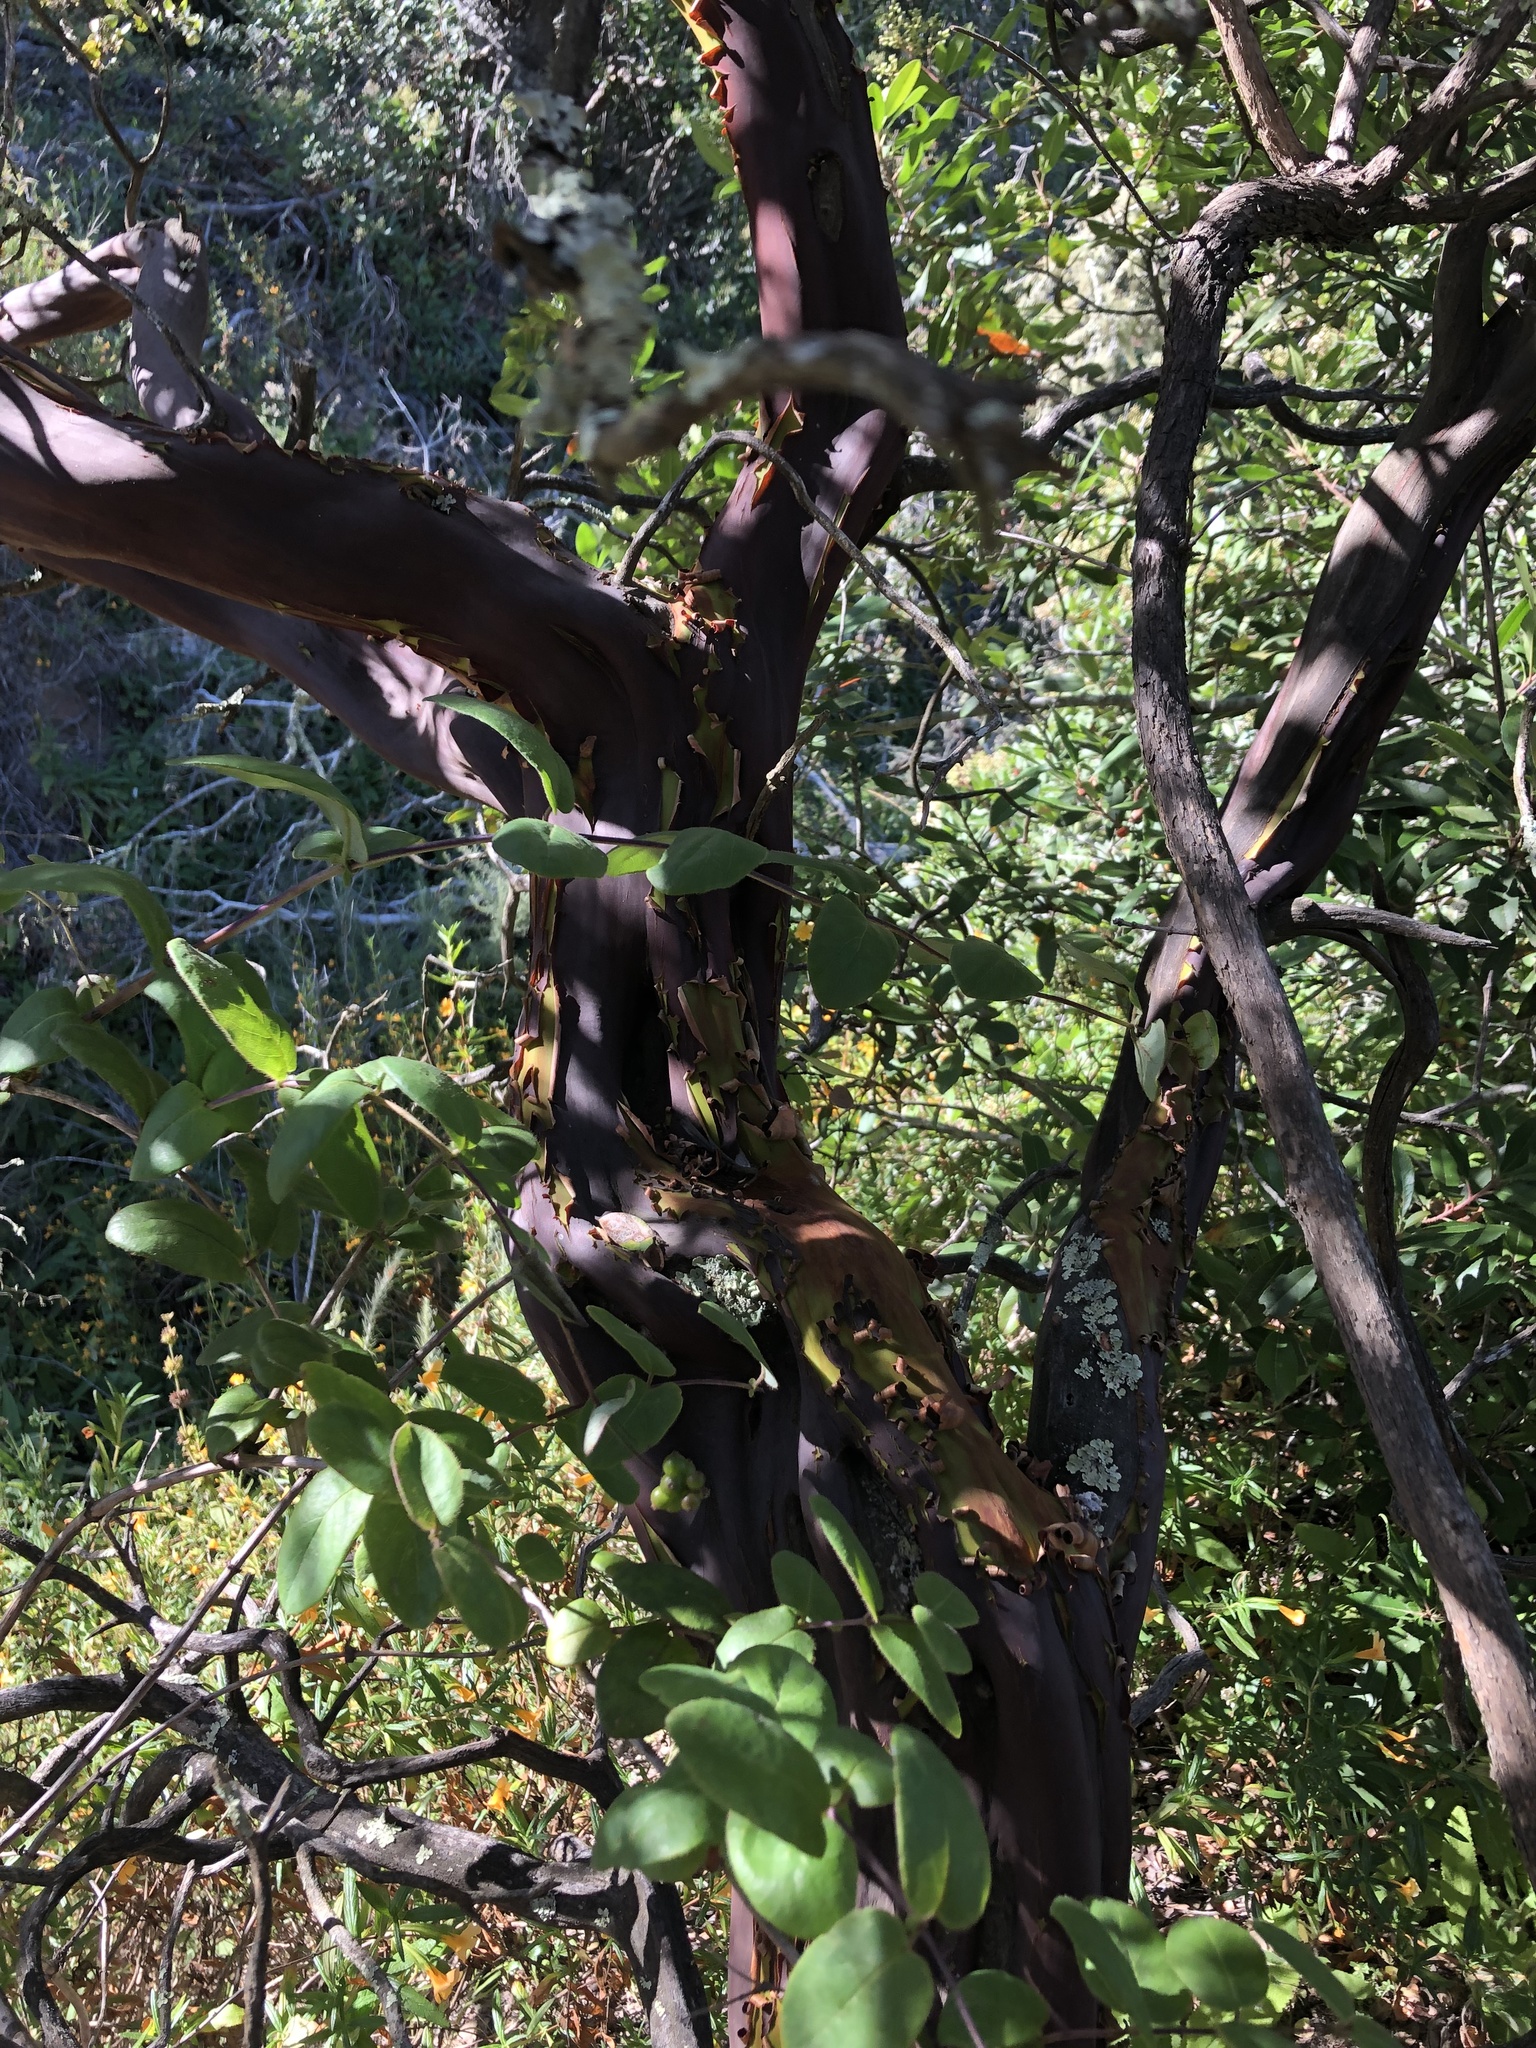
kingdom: Plantae
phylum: Tracheophyta
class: Magnoliopsida
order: Ericales
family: Ericaceae
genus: Arctostaphylos
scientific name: Arctostaphylos pechoensis
